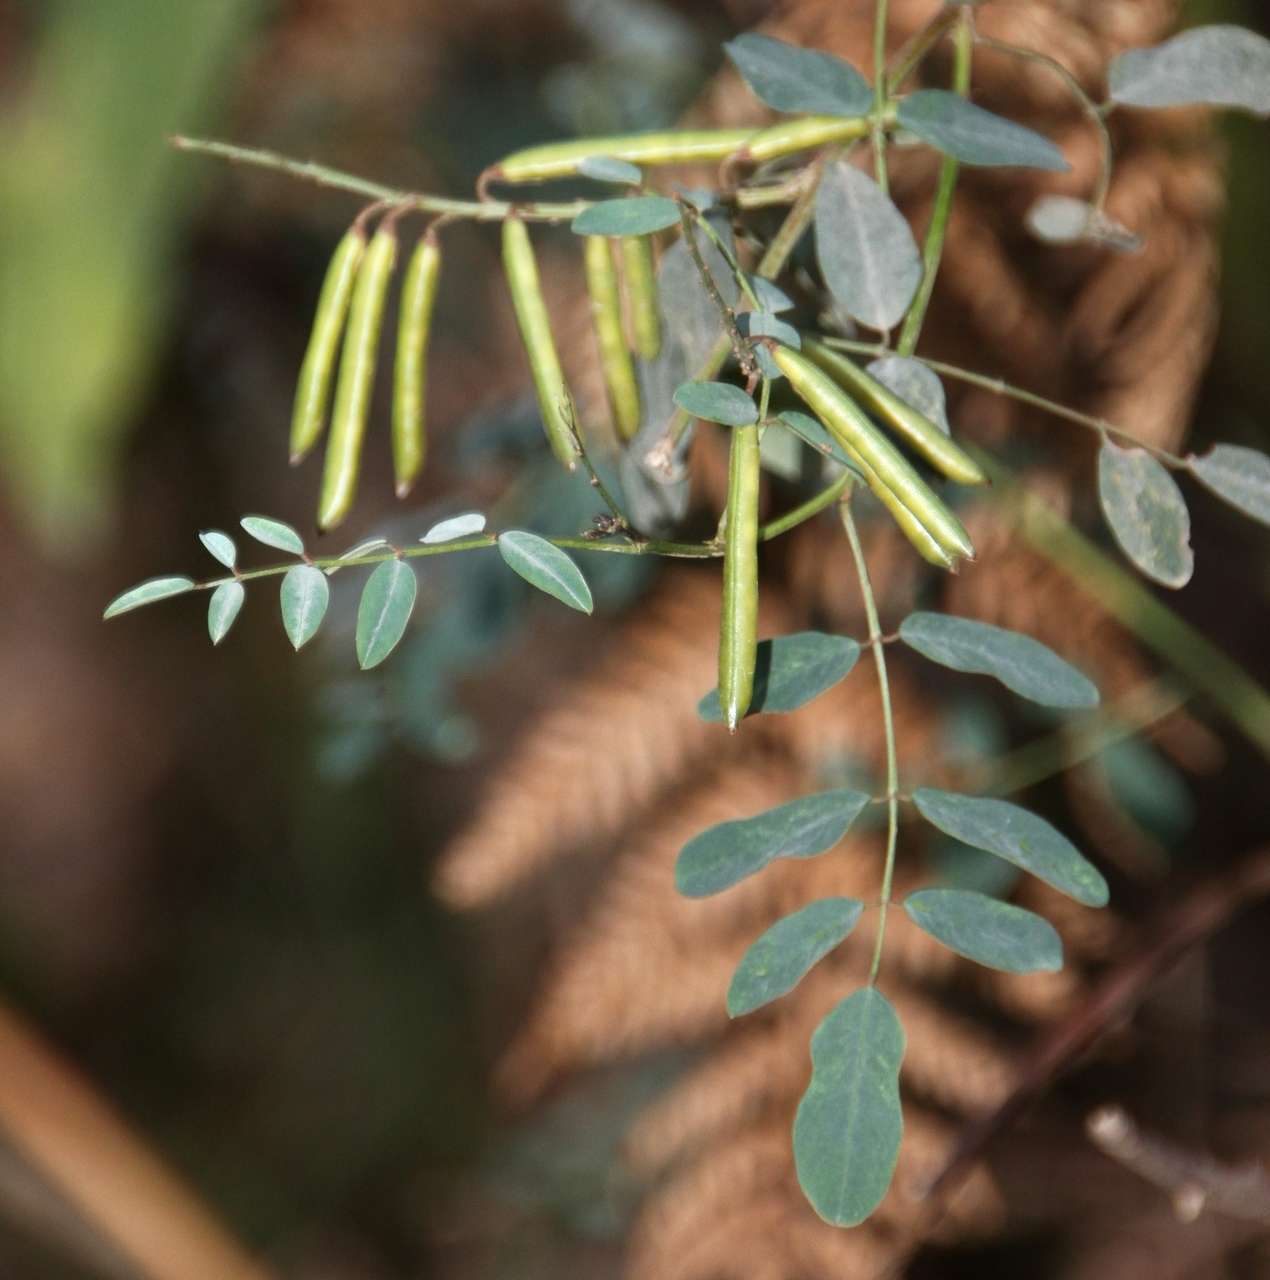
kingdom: Plantae
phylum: Tracheophyta
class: Magnoliopsida
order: Fabales
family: Fabaceae
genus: Indigofera
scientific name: Indigofera australis
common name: Australian indigo
